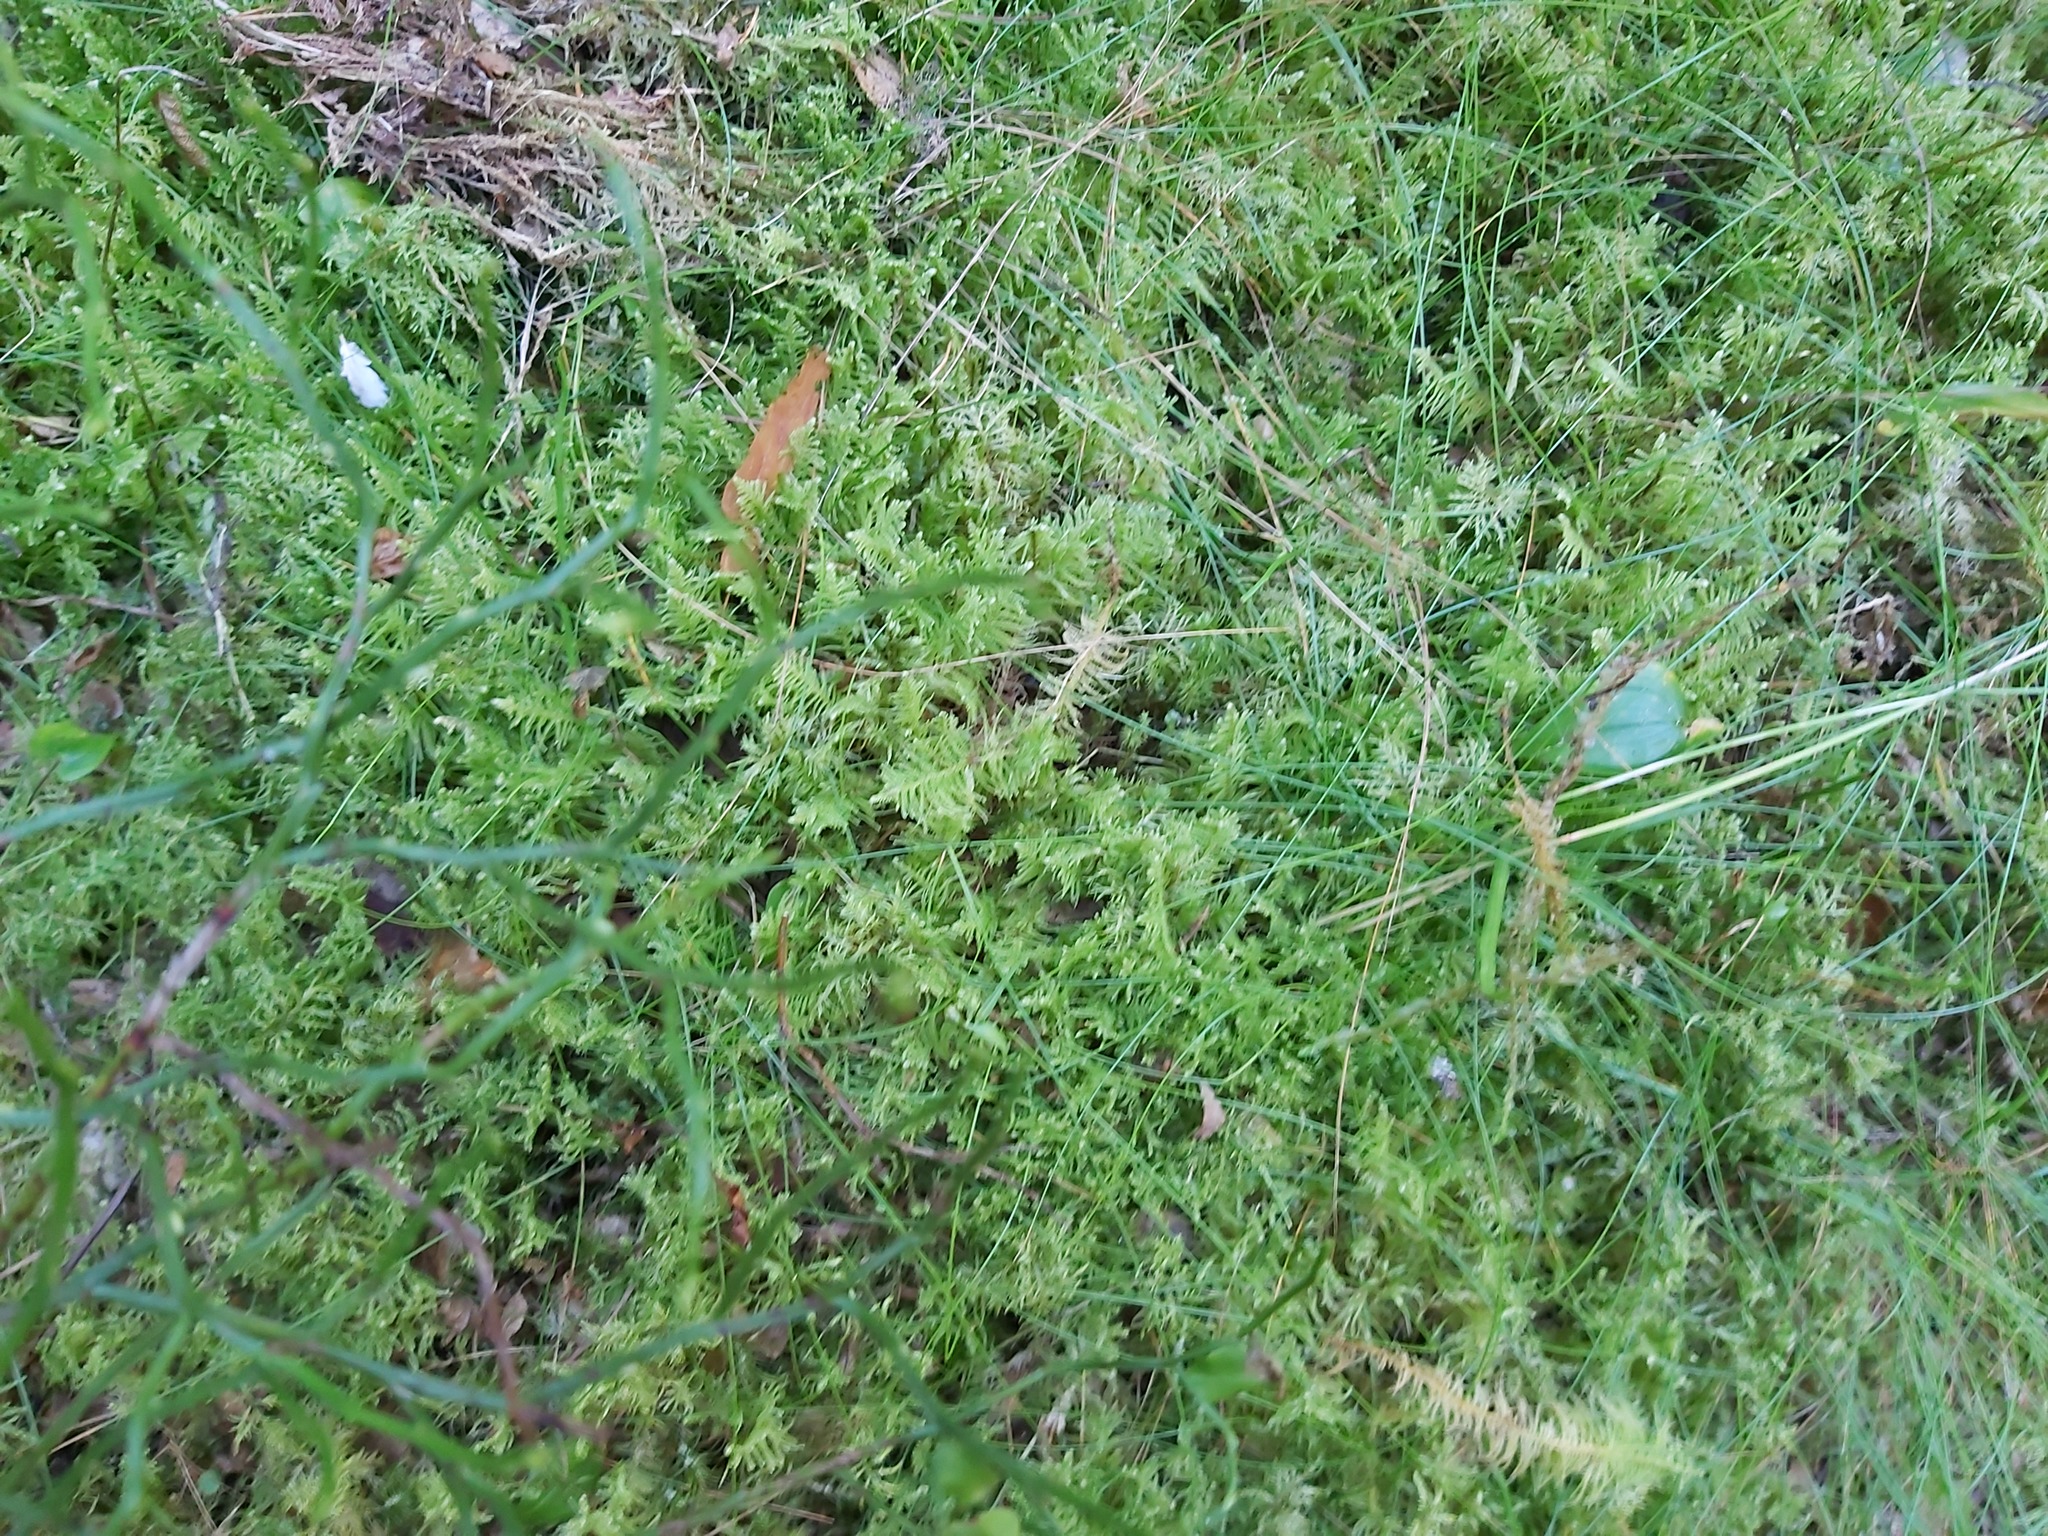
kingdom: Plantae
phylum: Bryophyta
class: Bryopsida
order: Hypnales
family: Pylaisiaceae
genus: Ptilium
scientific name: Ptilium crista-castrensis
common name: Knight's plume moss
